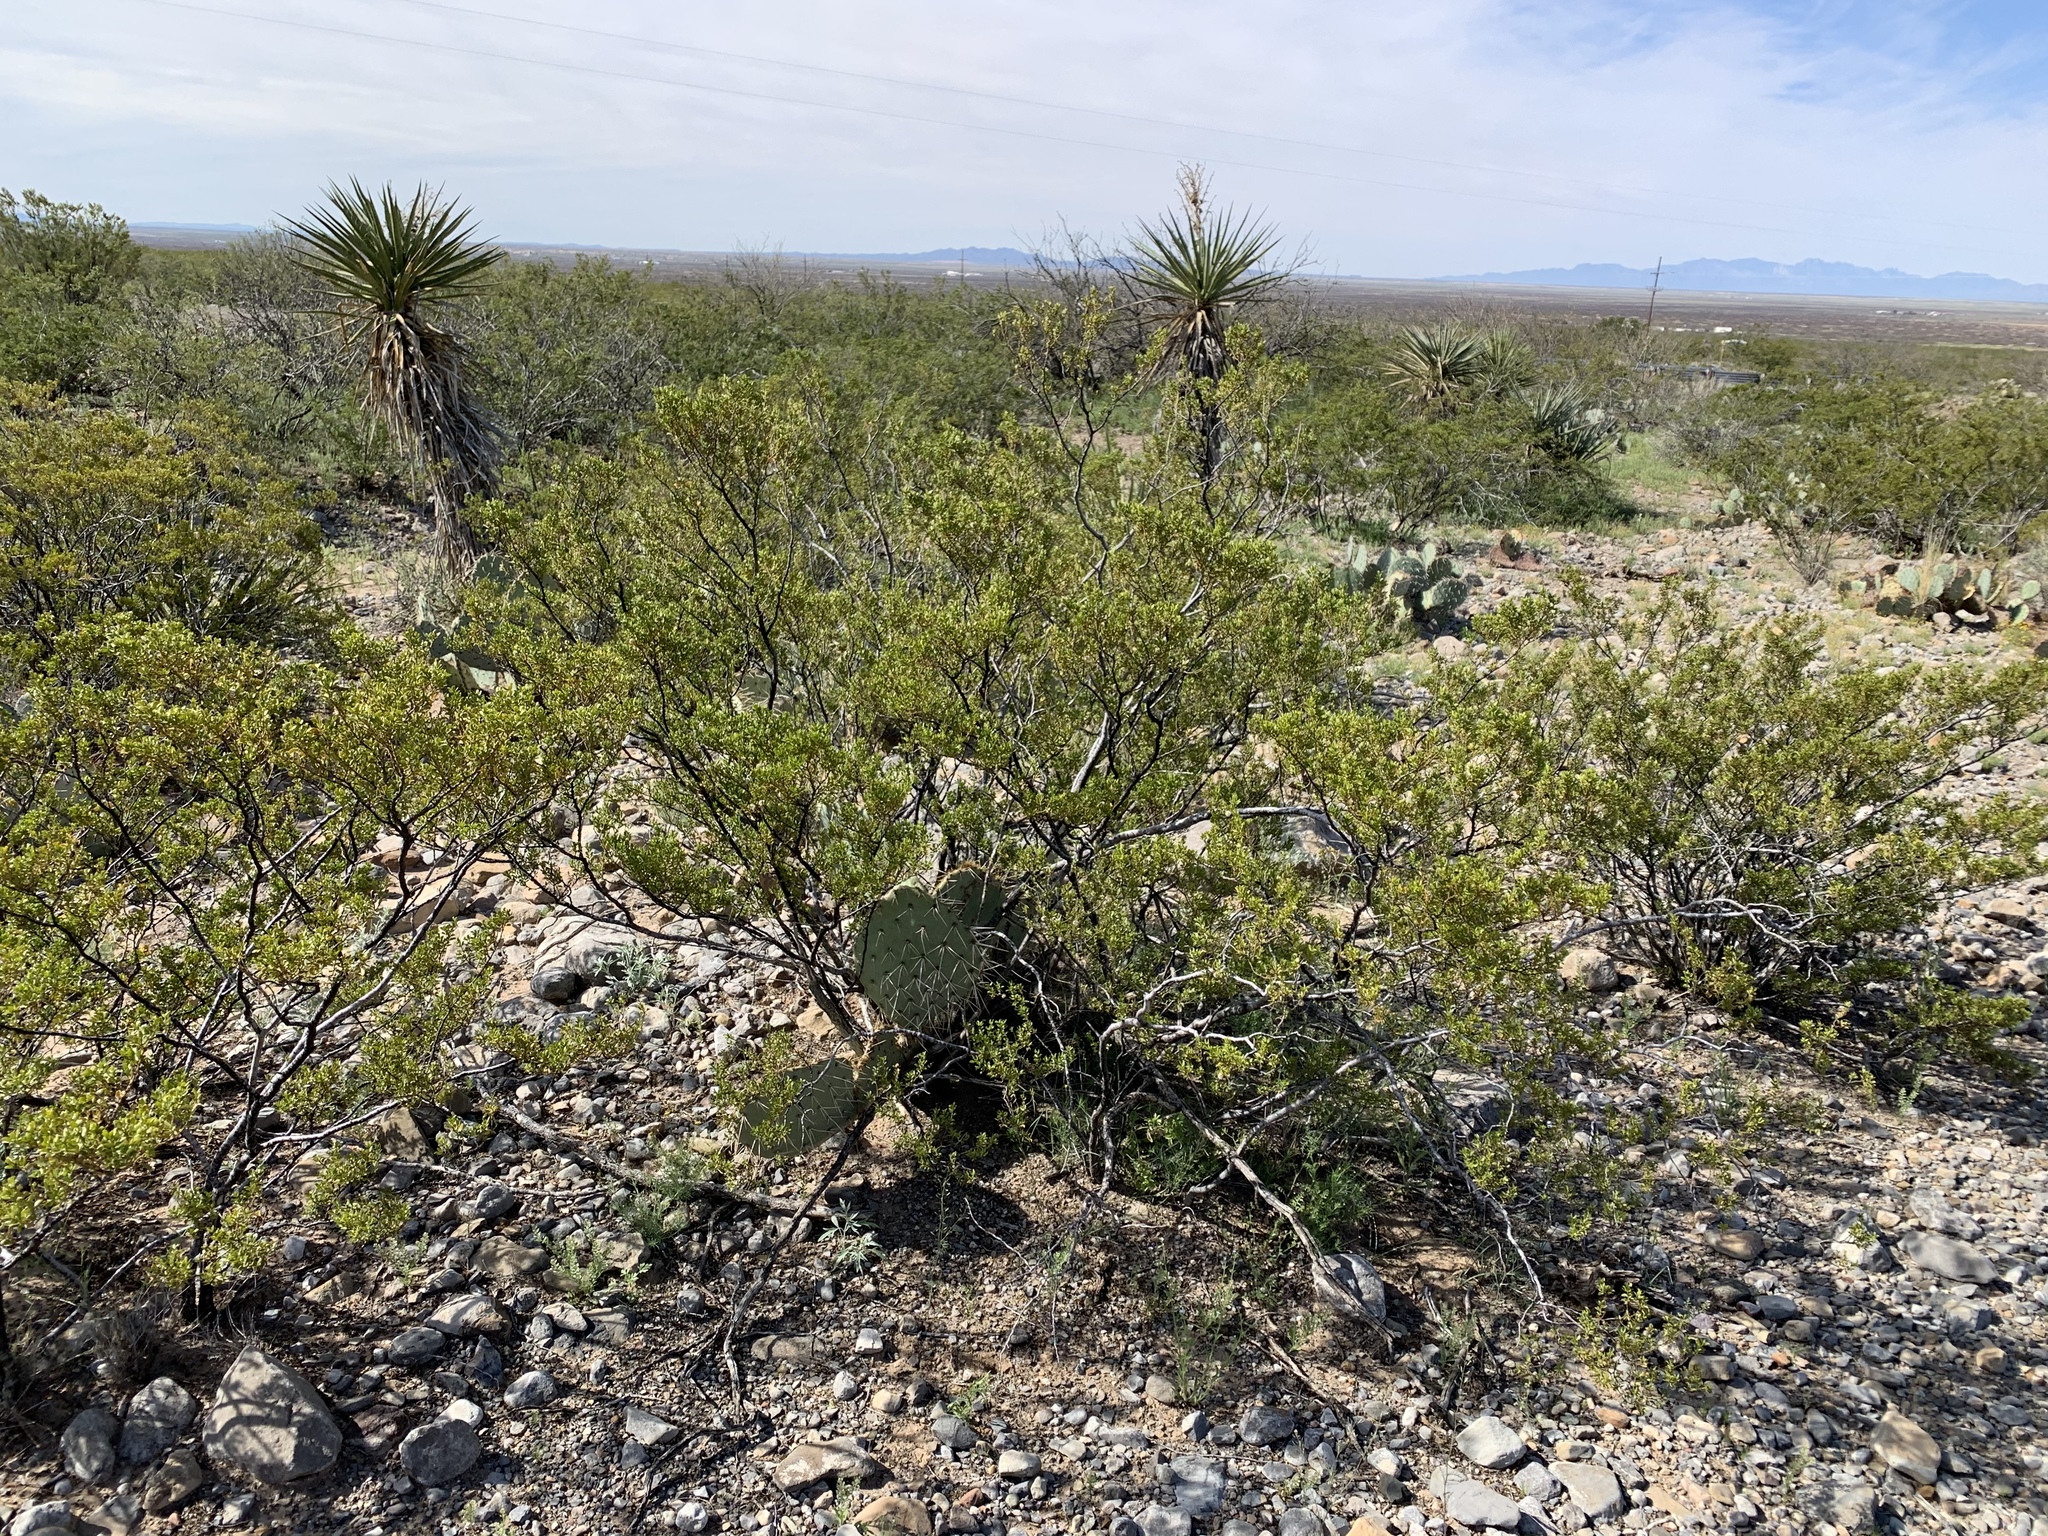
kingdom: Plantae
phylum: Tracheophyta
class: Magnoliopsida
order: Zygophyllales
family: Zygophyllaceae
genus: Larrea
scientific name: Larrea tridentata
